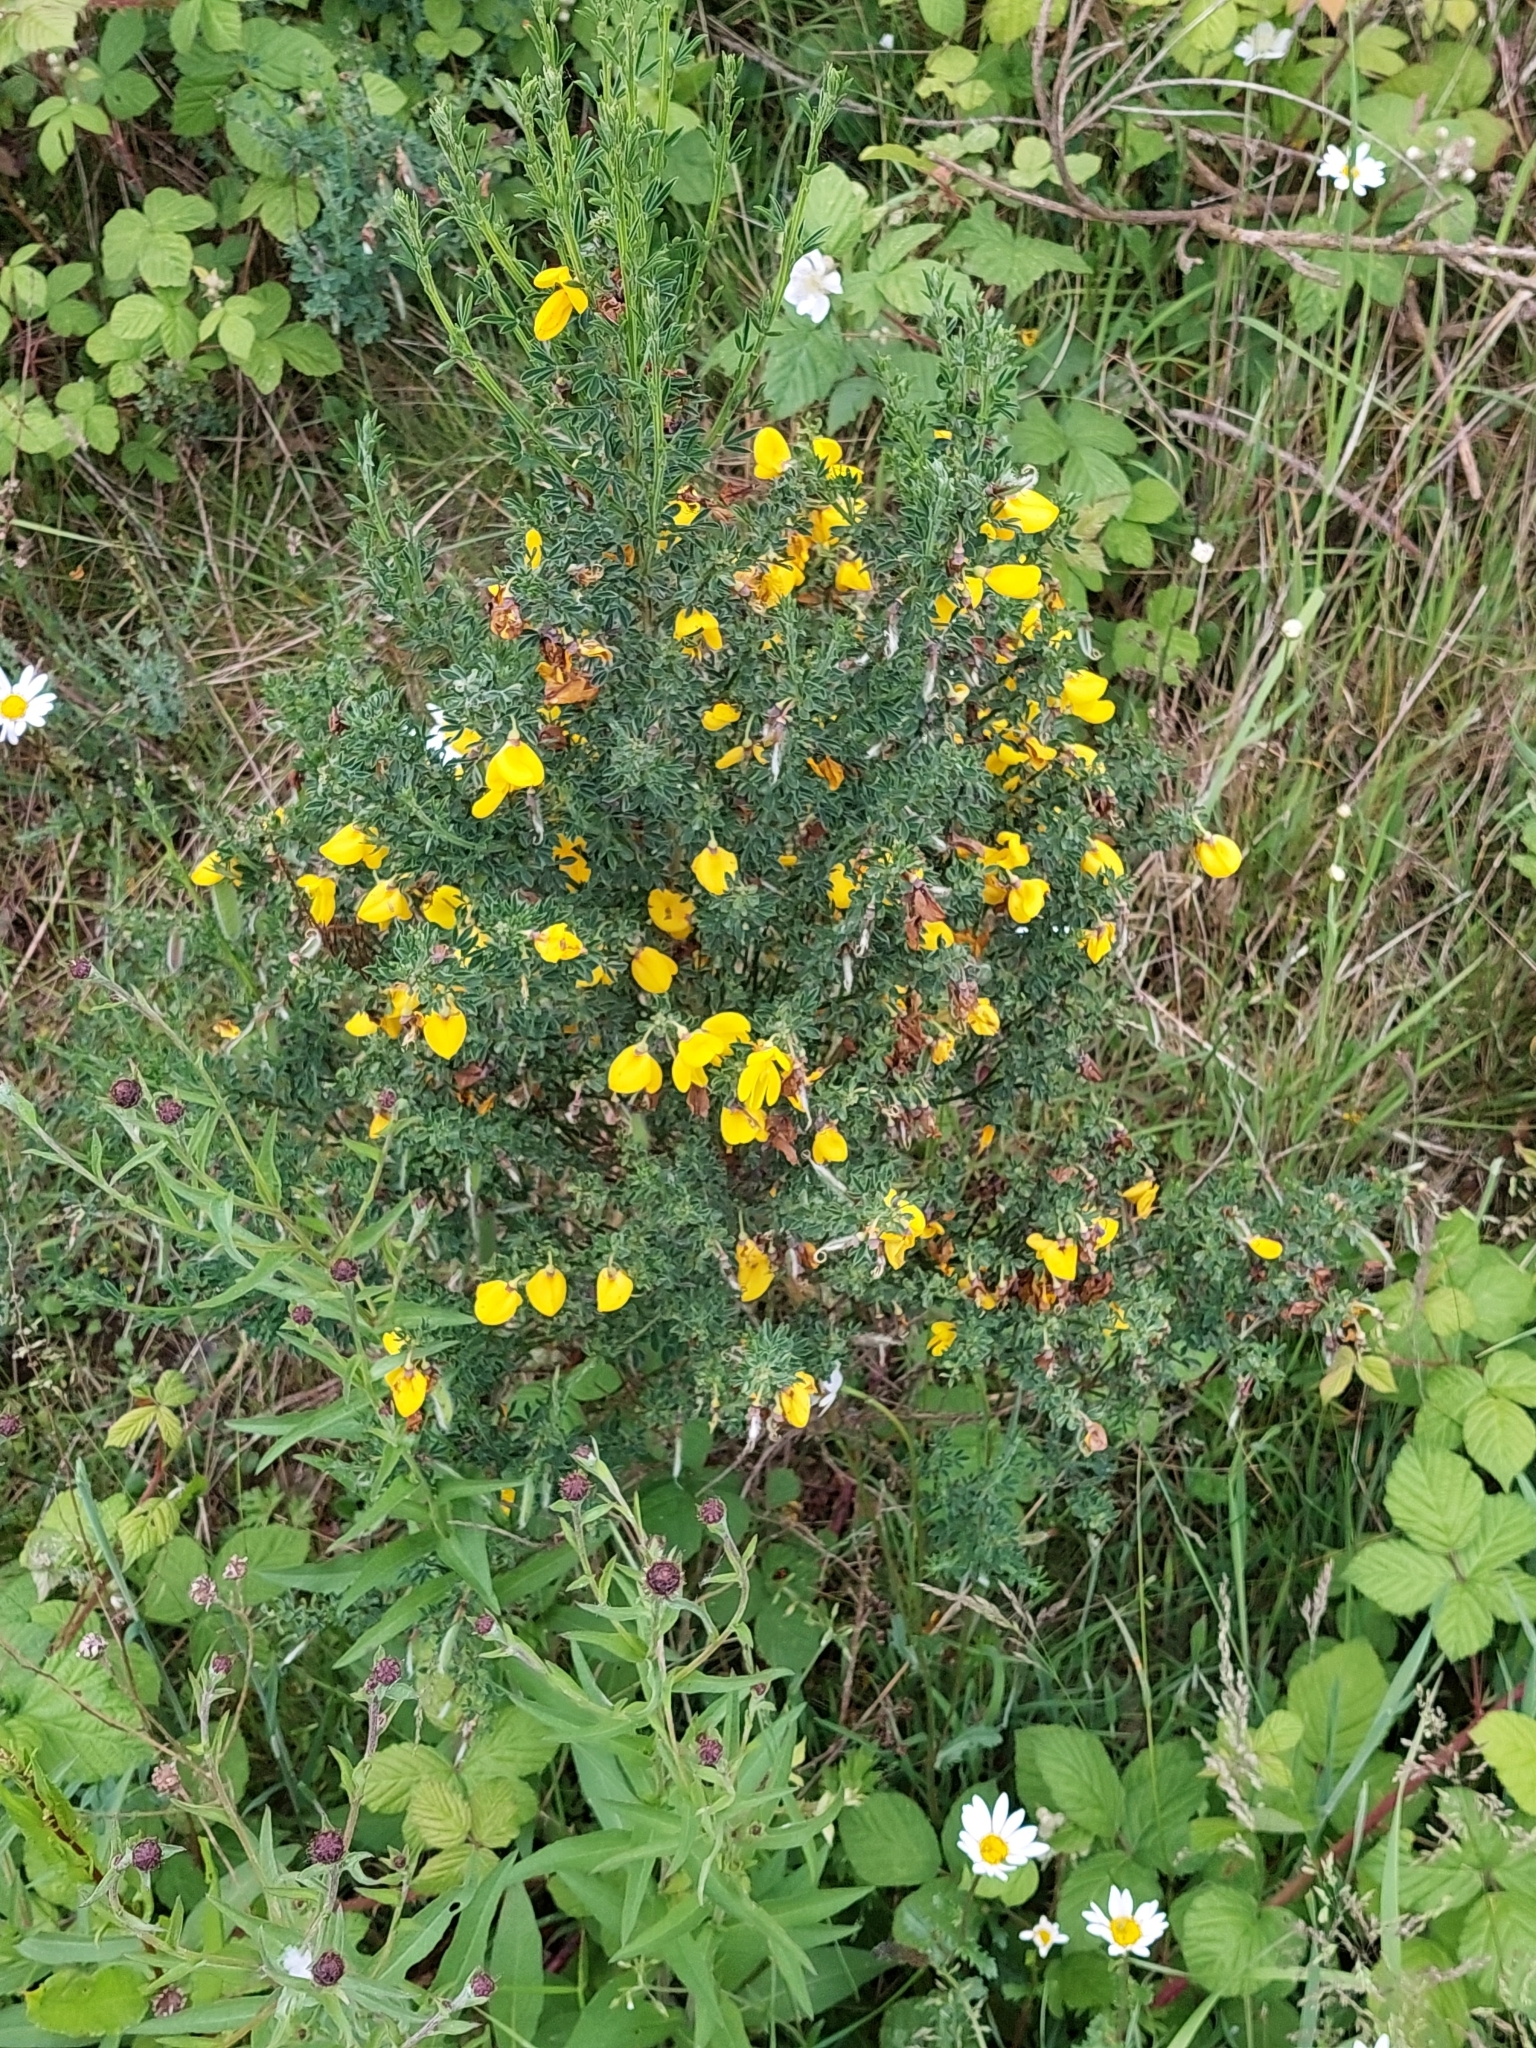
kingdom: Plantae
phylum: Tracheophyta
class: Magnoliopsida
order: Fabales
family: Fabaceae
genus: Ulex
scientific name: Ulex europaeus
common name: Common gorse
